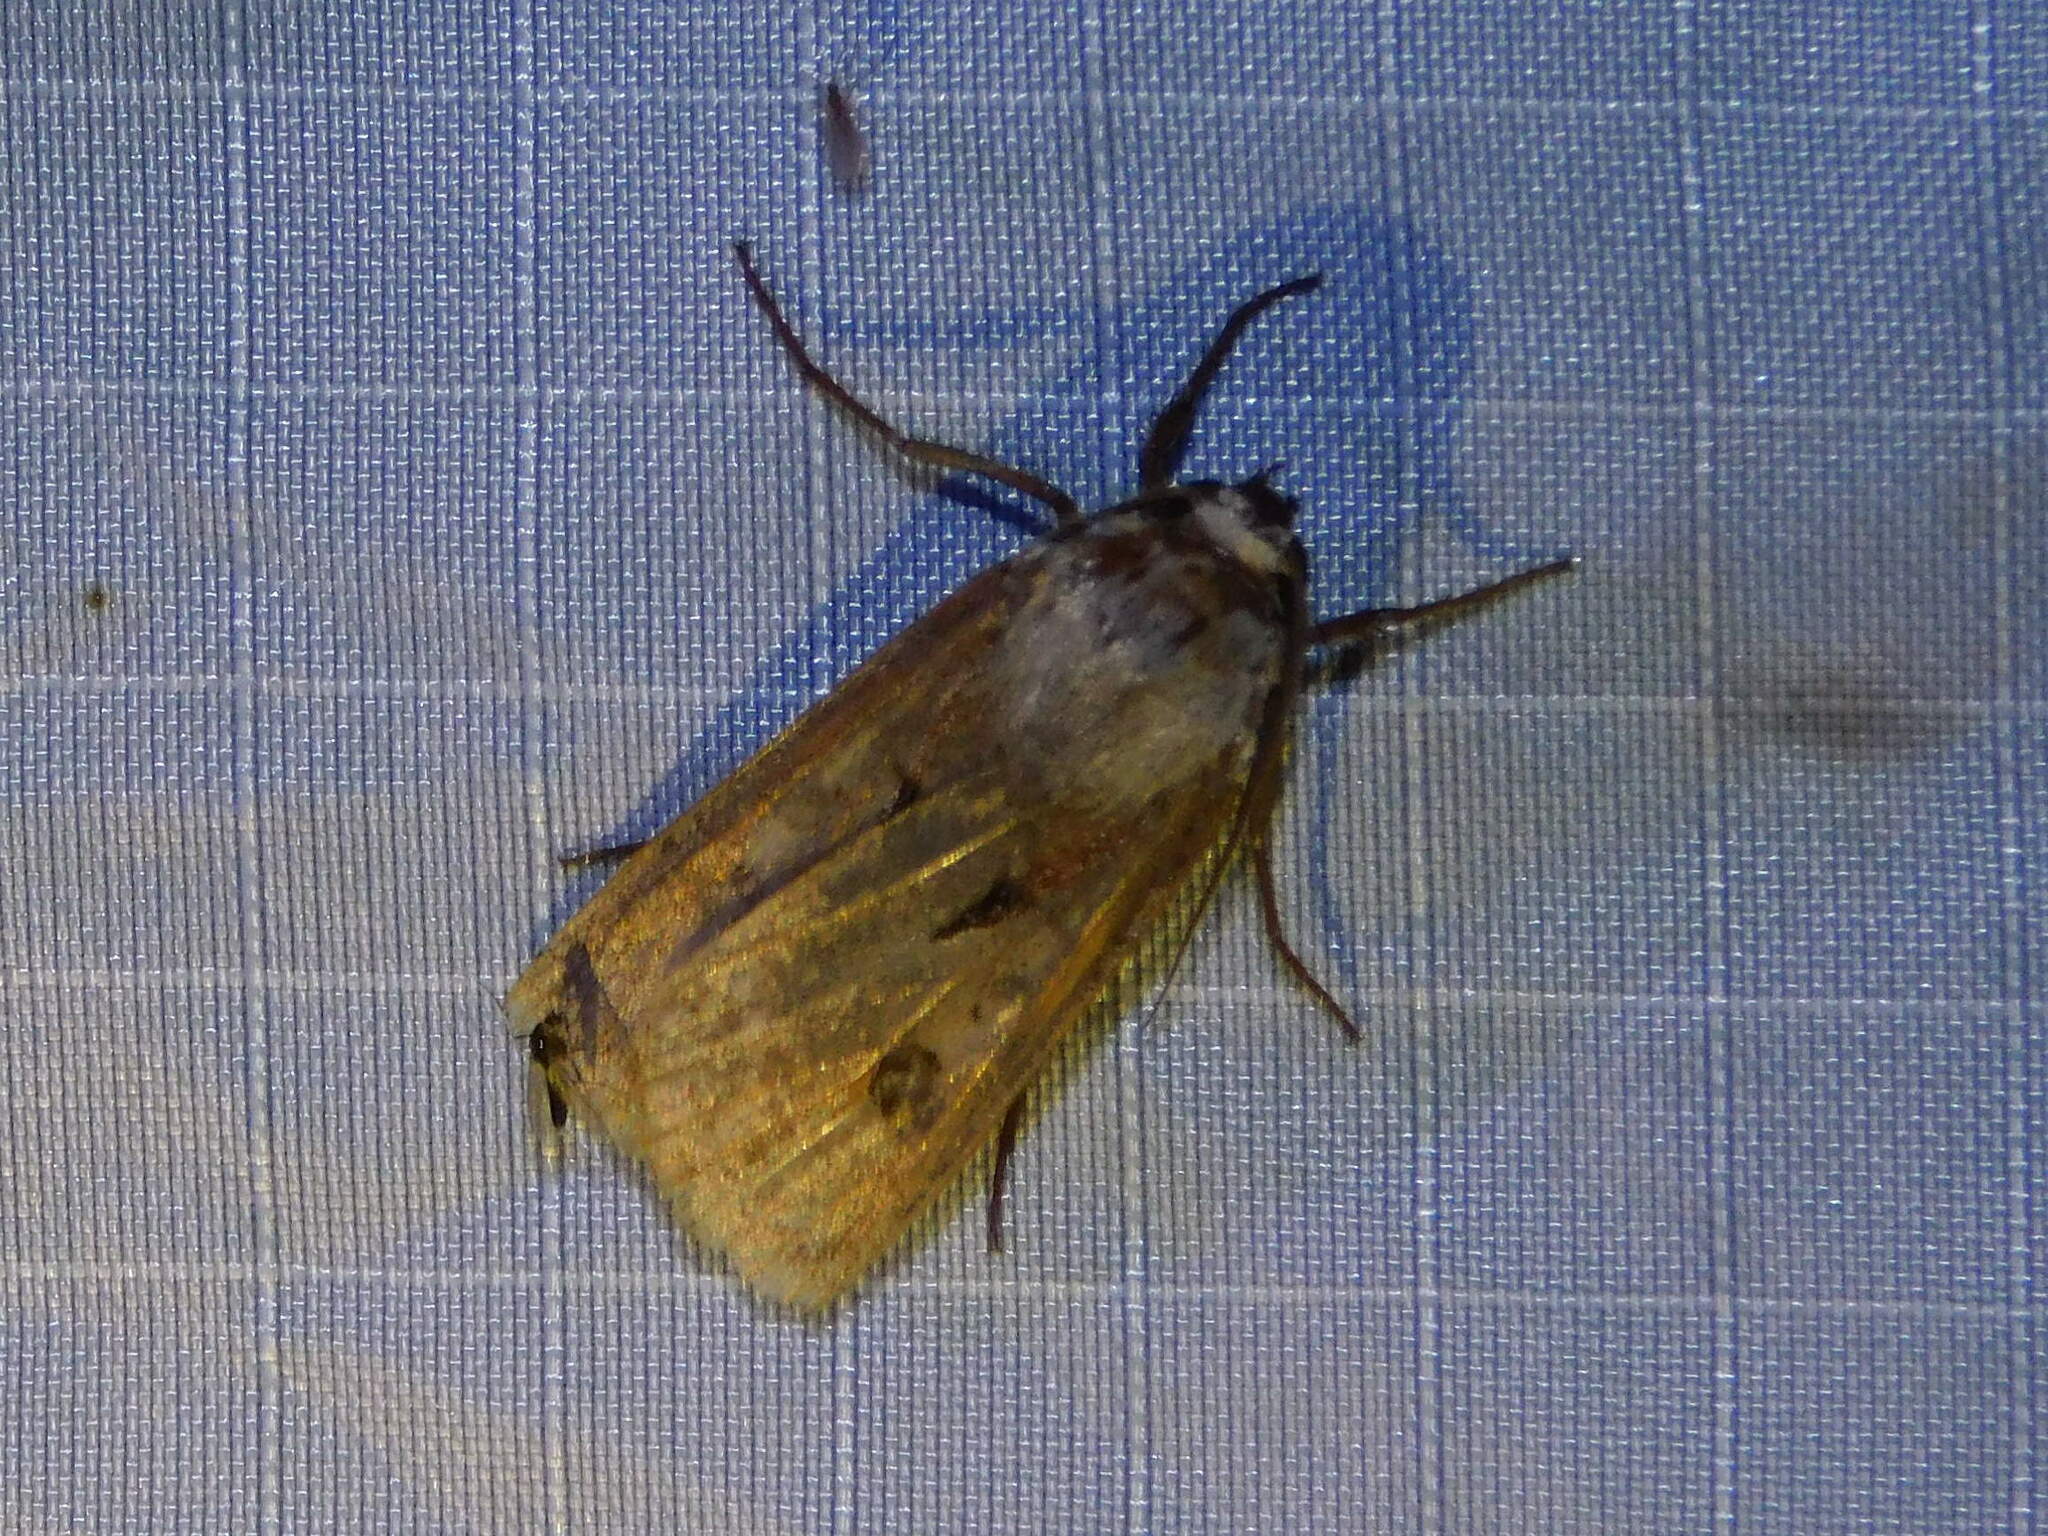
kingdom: Animalia
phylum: Arthropoda
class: Insecta
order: Lepidoptera
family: Noctuidae
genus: Agrotis
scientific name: Agrotis exclamationis
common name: Heart and dart
